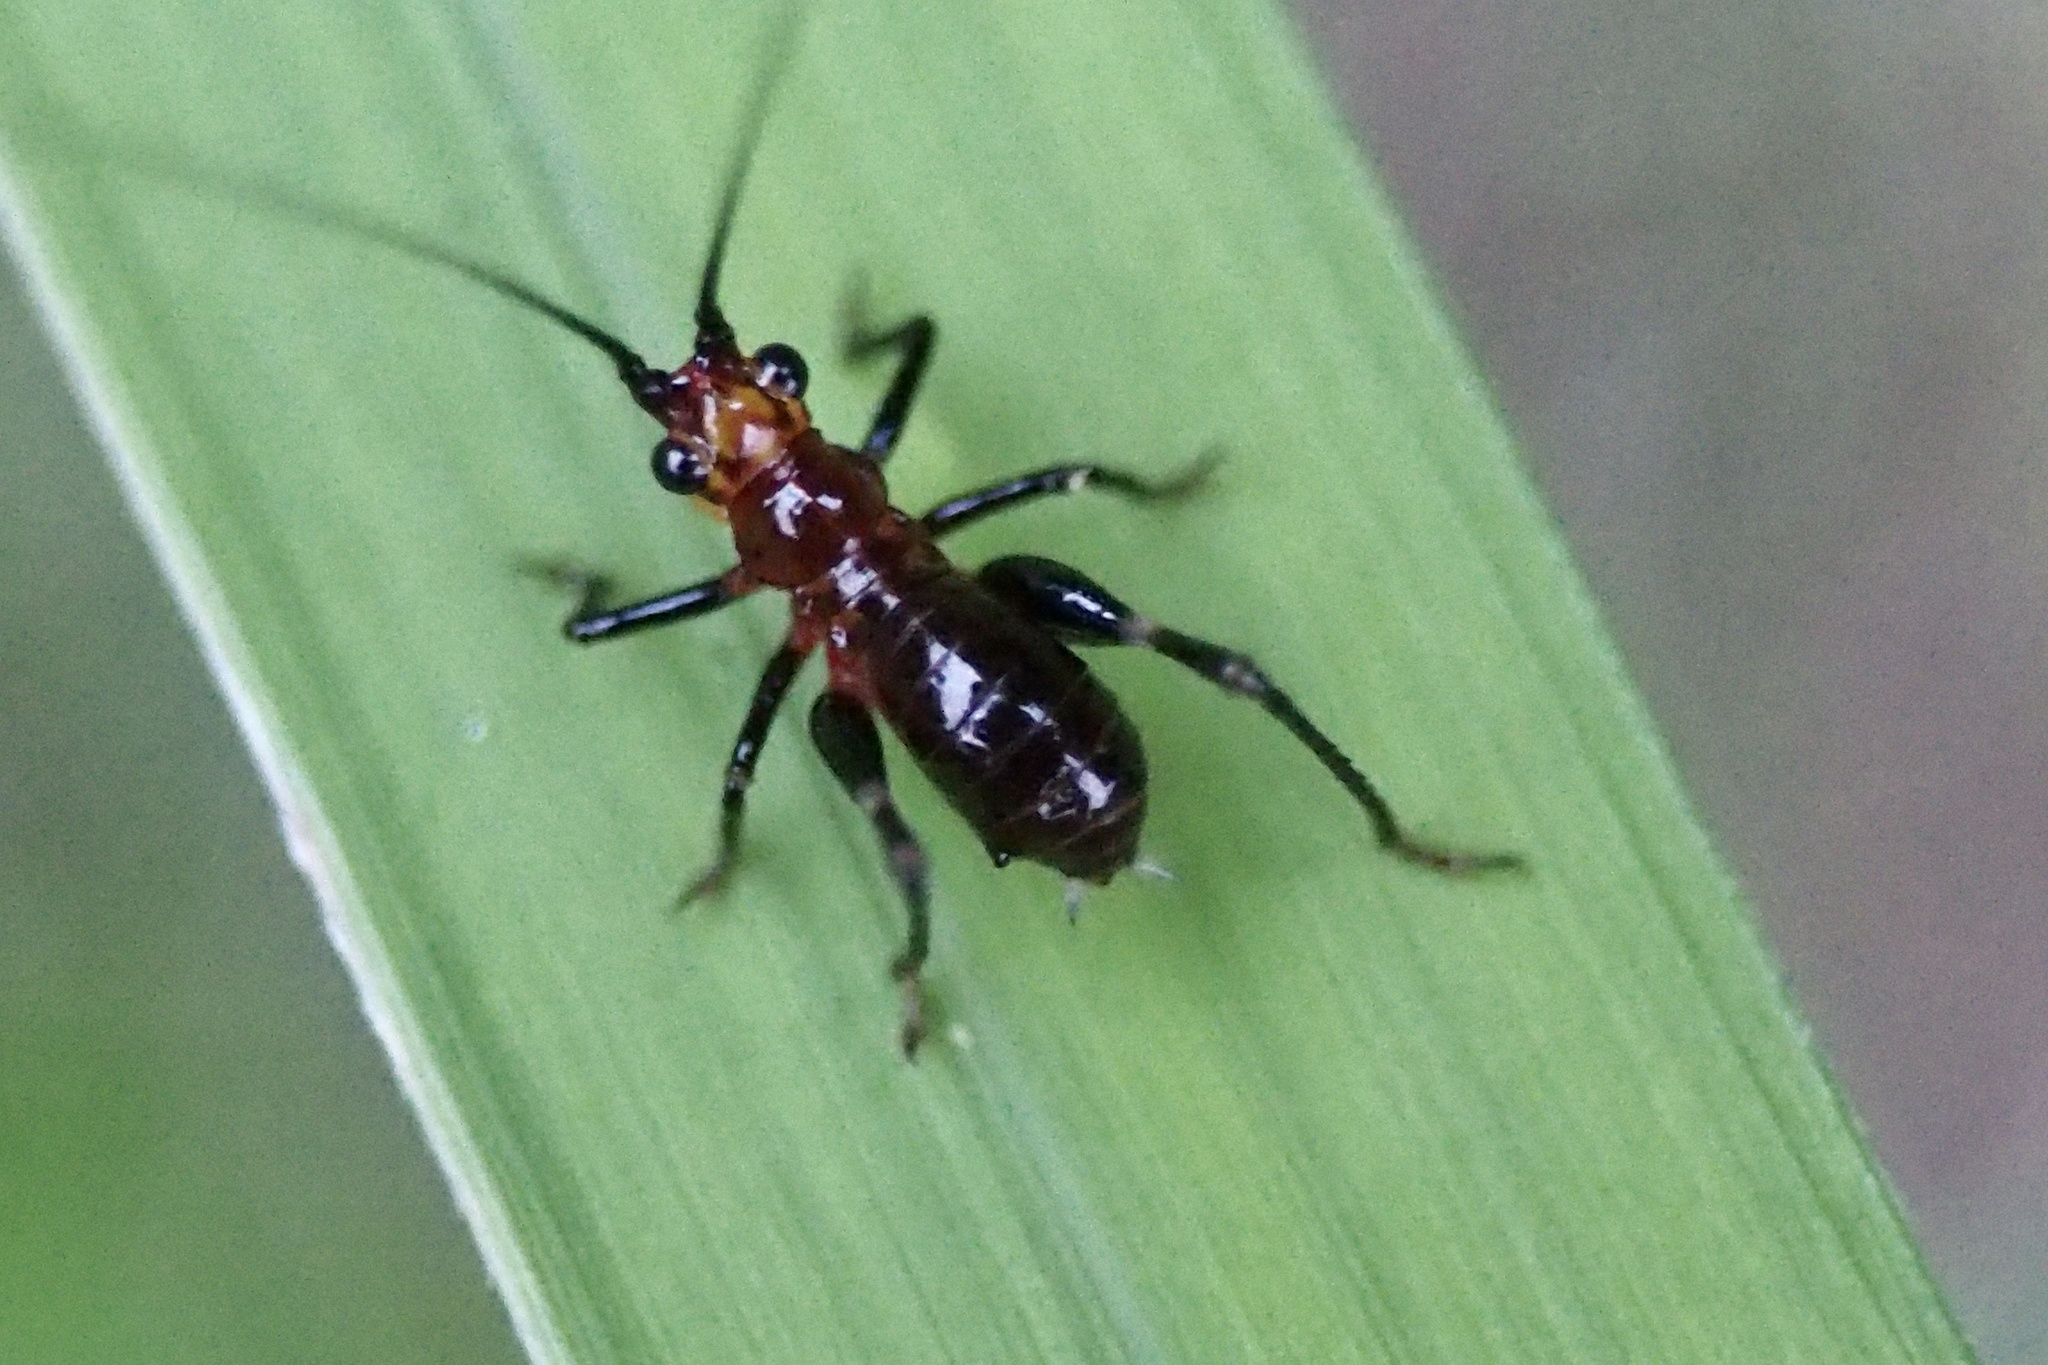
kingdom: Animalia
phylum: Arthropoda
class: Insecta
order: Orthoptera
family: Tettigoniidae
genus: Conocephalus
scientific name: Conocephalus melaenus
